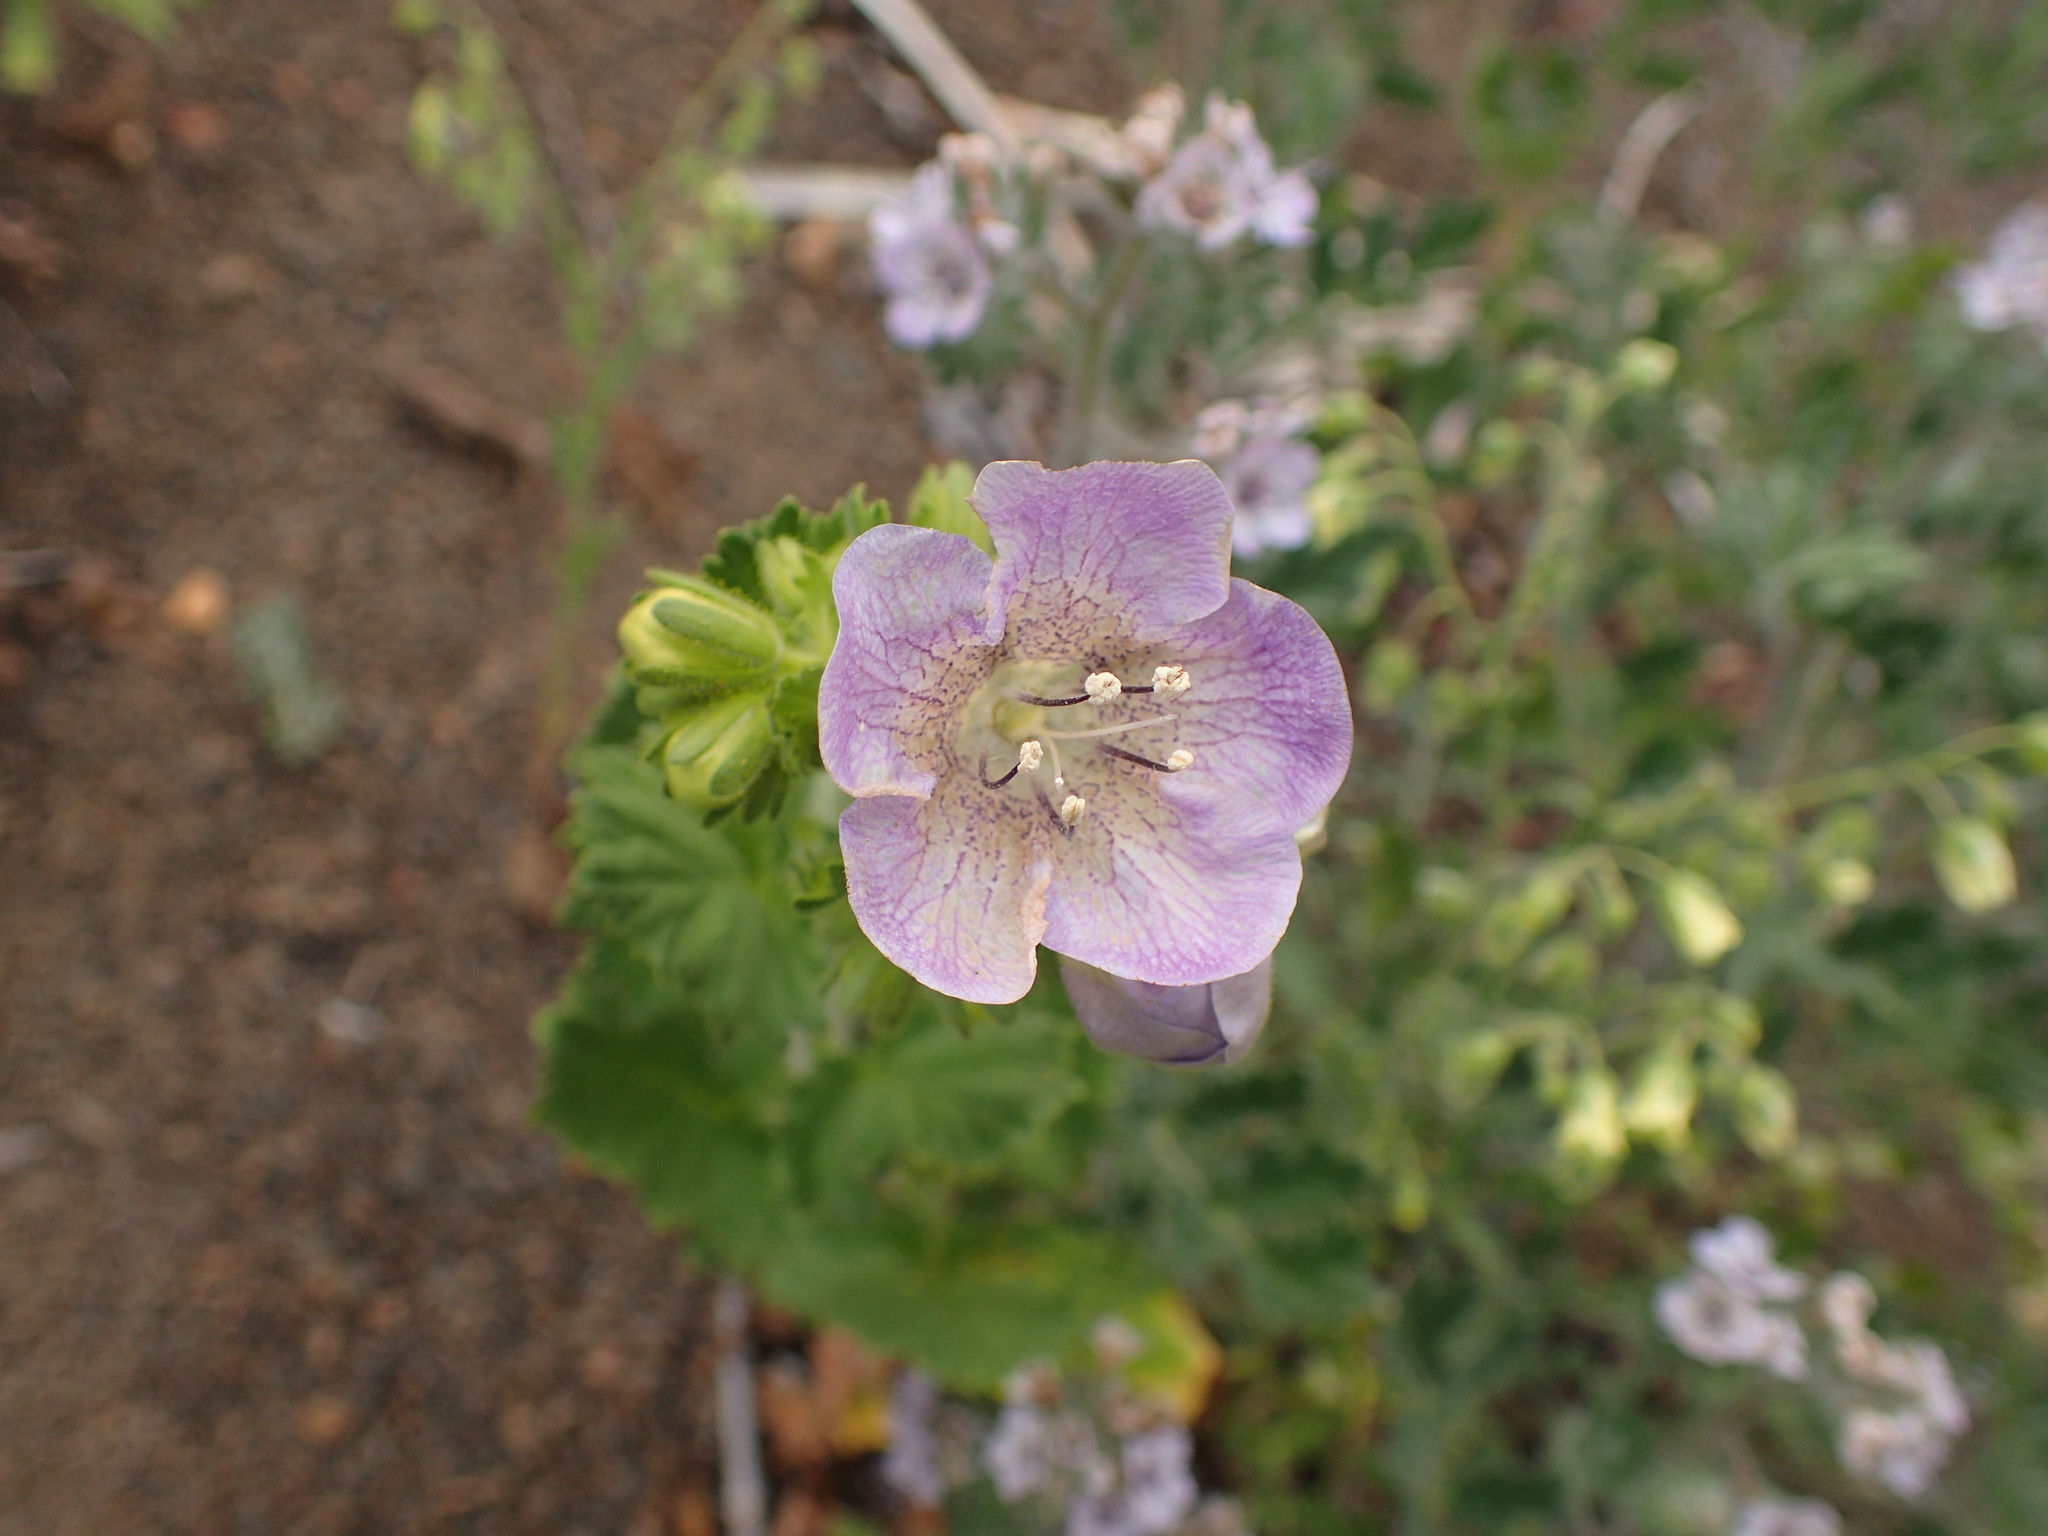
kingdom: Plantae
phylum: Tracheophyta
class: Magnoliopsida
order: Boraginales
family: Hydrophyllaceae
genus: Phacelia
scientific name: Phacelia grandiflora
